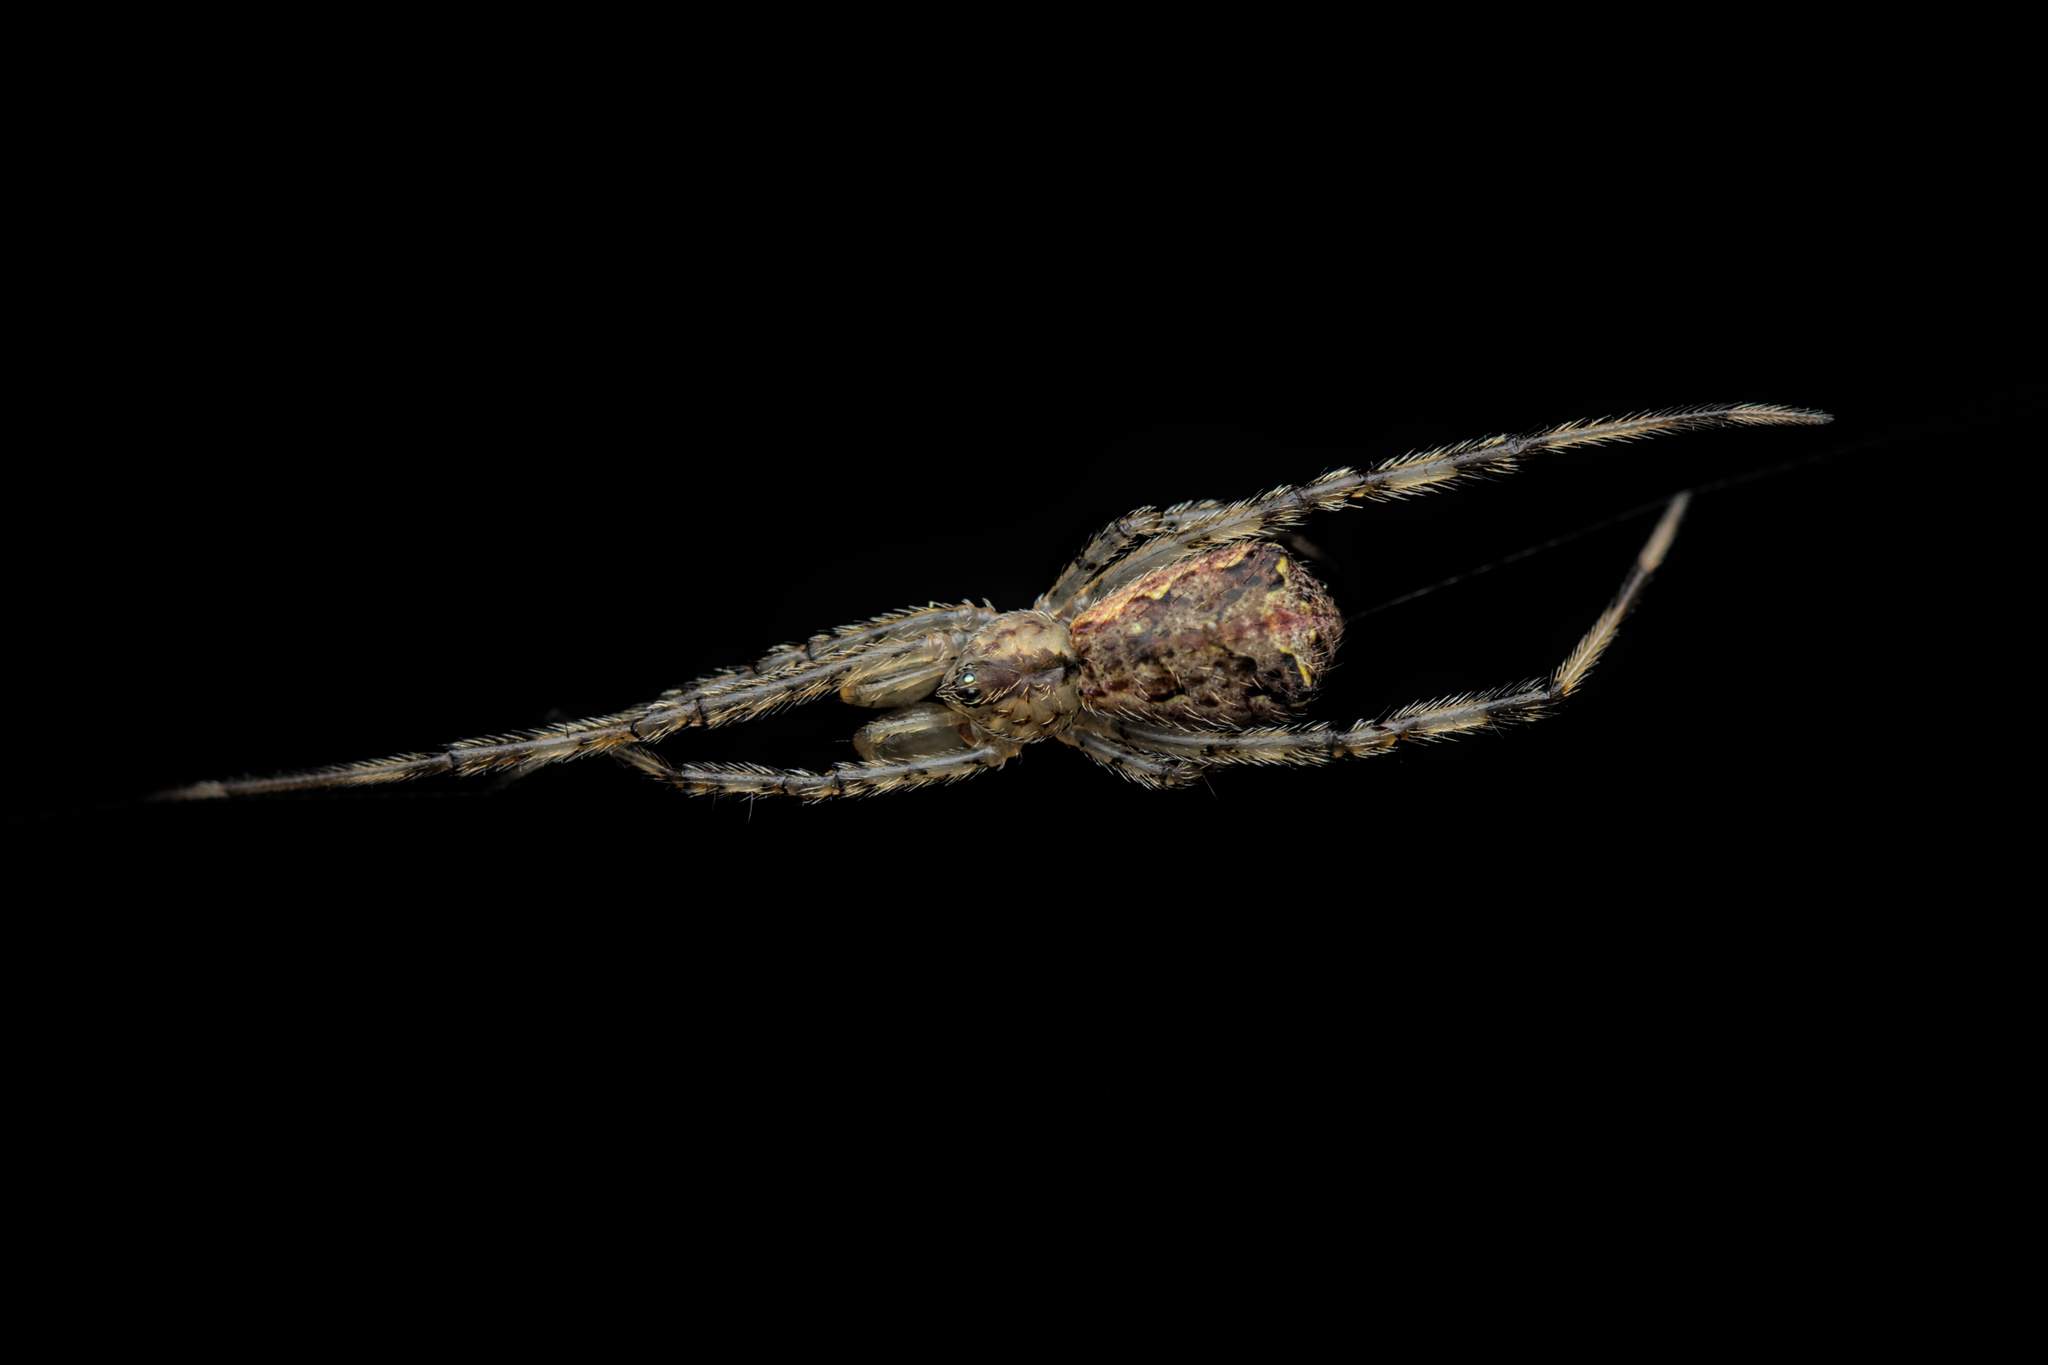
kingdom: Animalia
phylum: Arthropoda
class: Arachnida
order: Araneae
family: Theridiidae
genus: Episinus
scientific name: Episinus maculipes
